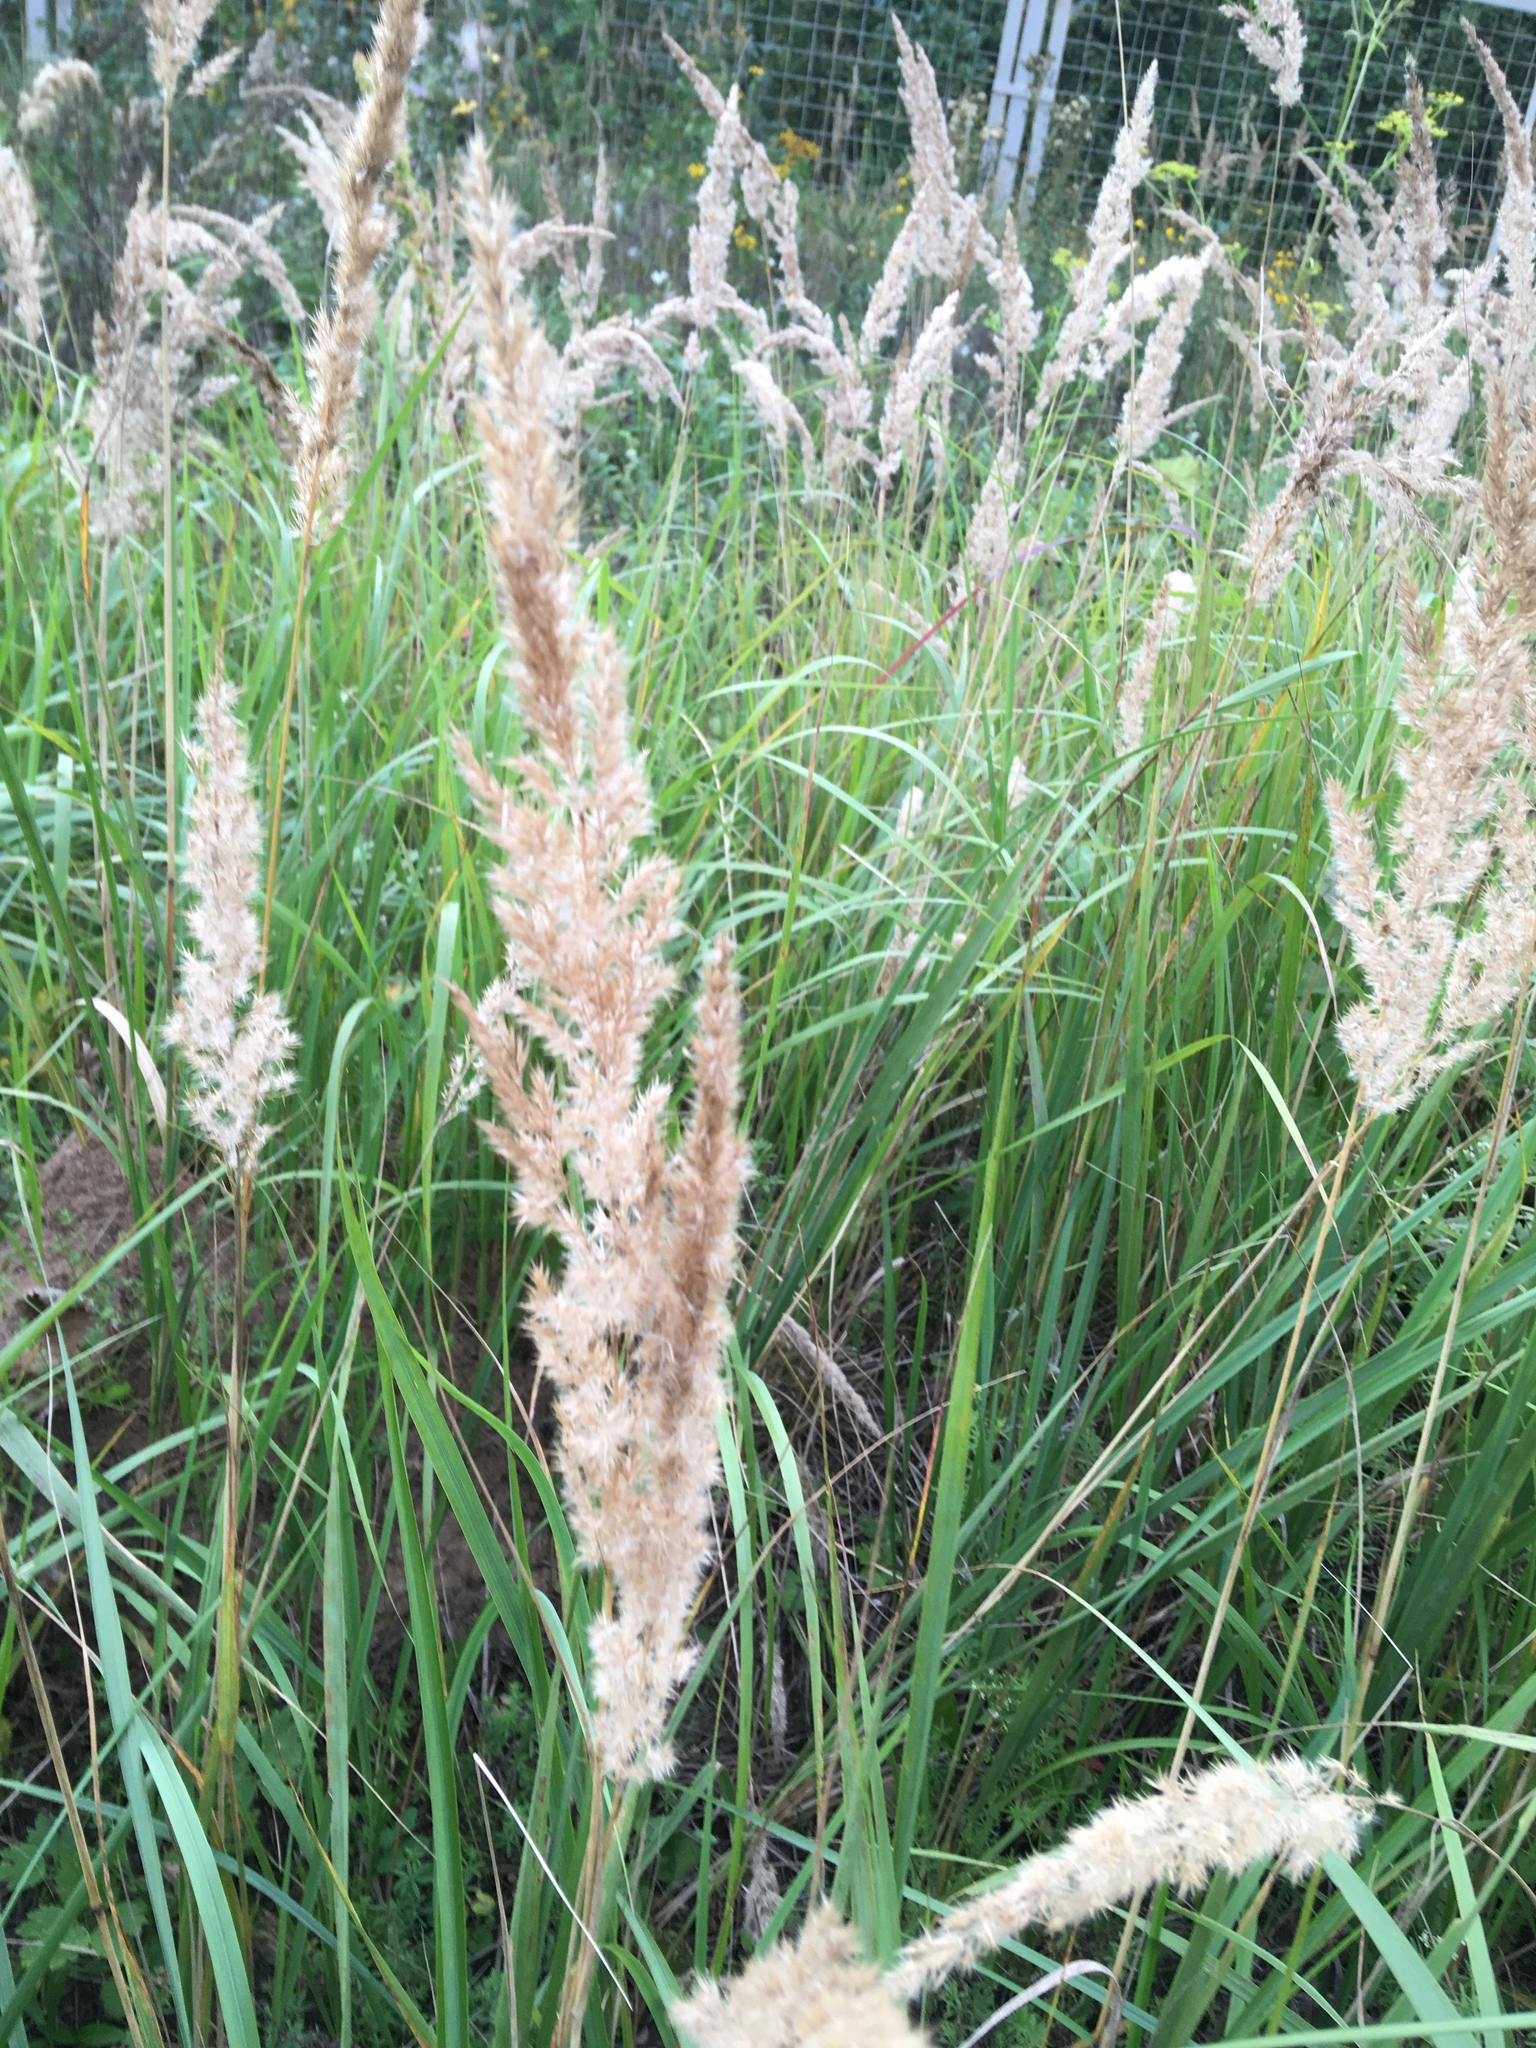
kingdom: Plantae
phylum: Tracheophyta
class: Liliopsida
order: Poales
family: Poaceae
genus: Calamagrostis
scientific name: Calamagrostis epigejos
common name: Wood small-reed
